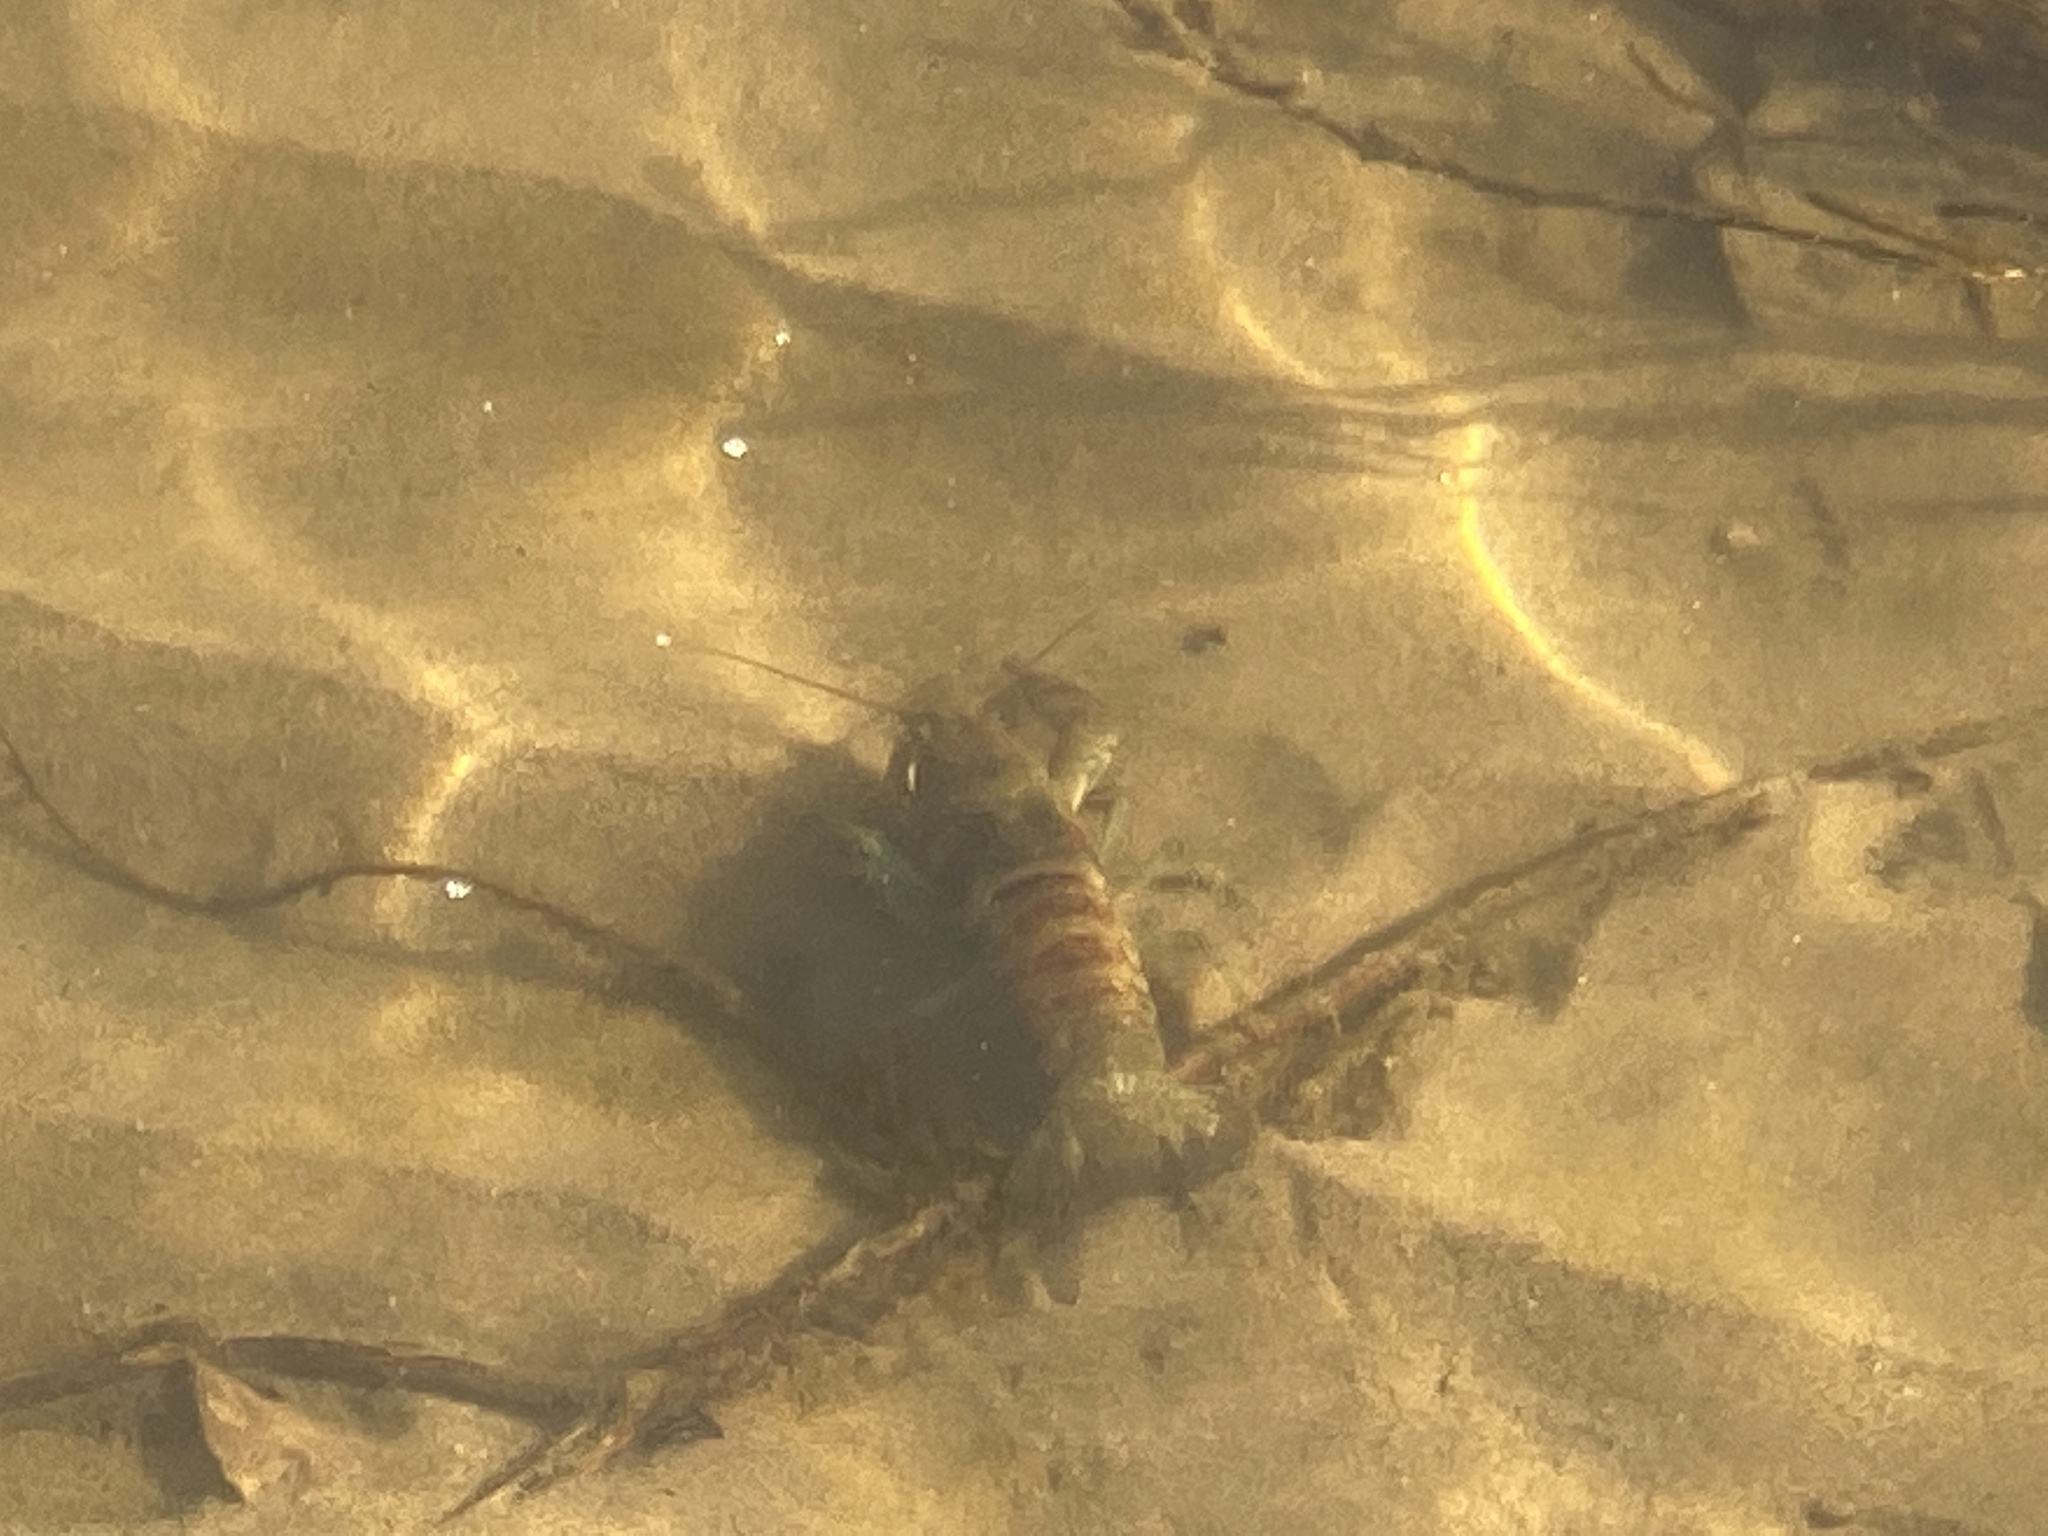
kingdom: Animalia
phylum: Arthropoda
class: Malacostraca
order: Decapoda
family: Cambaridae
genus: Faxonius
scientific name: Faxonius rusticus
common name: Rusty crayfish
